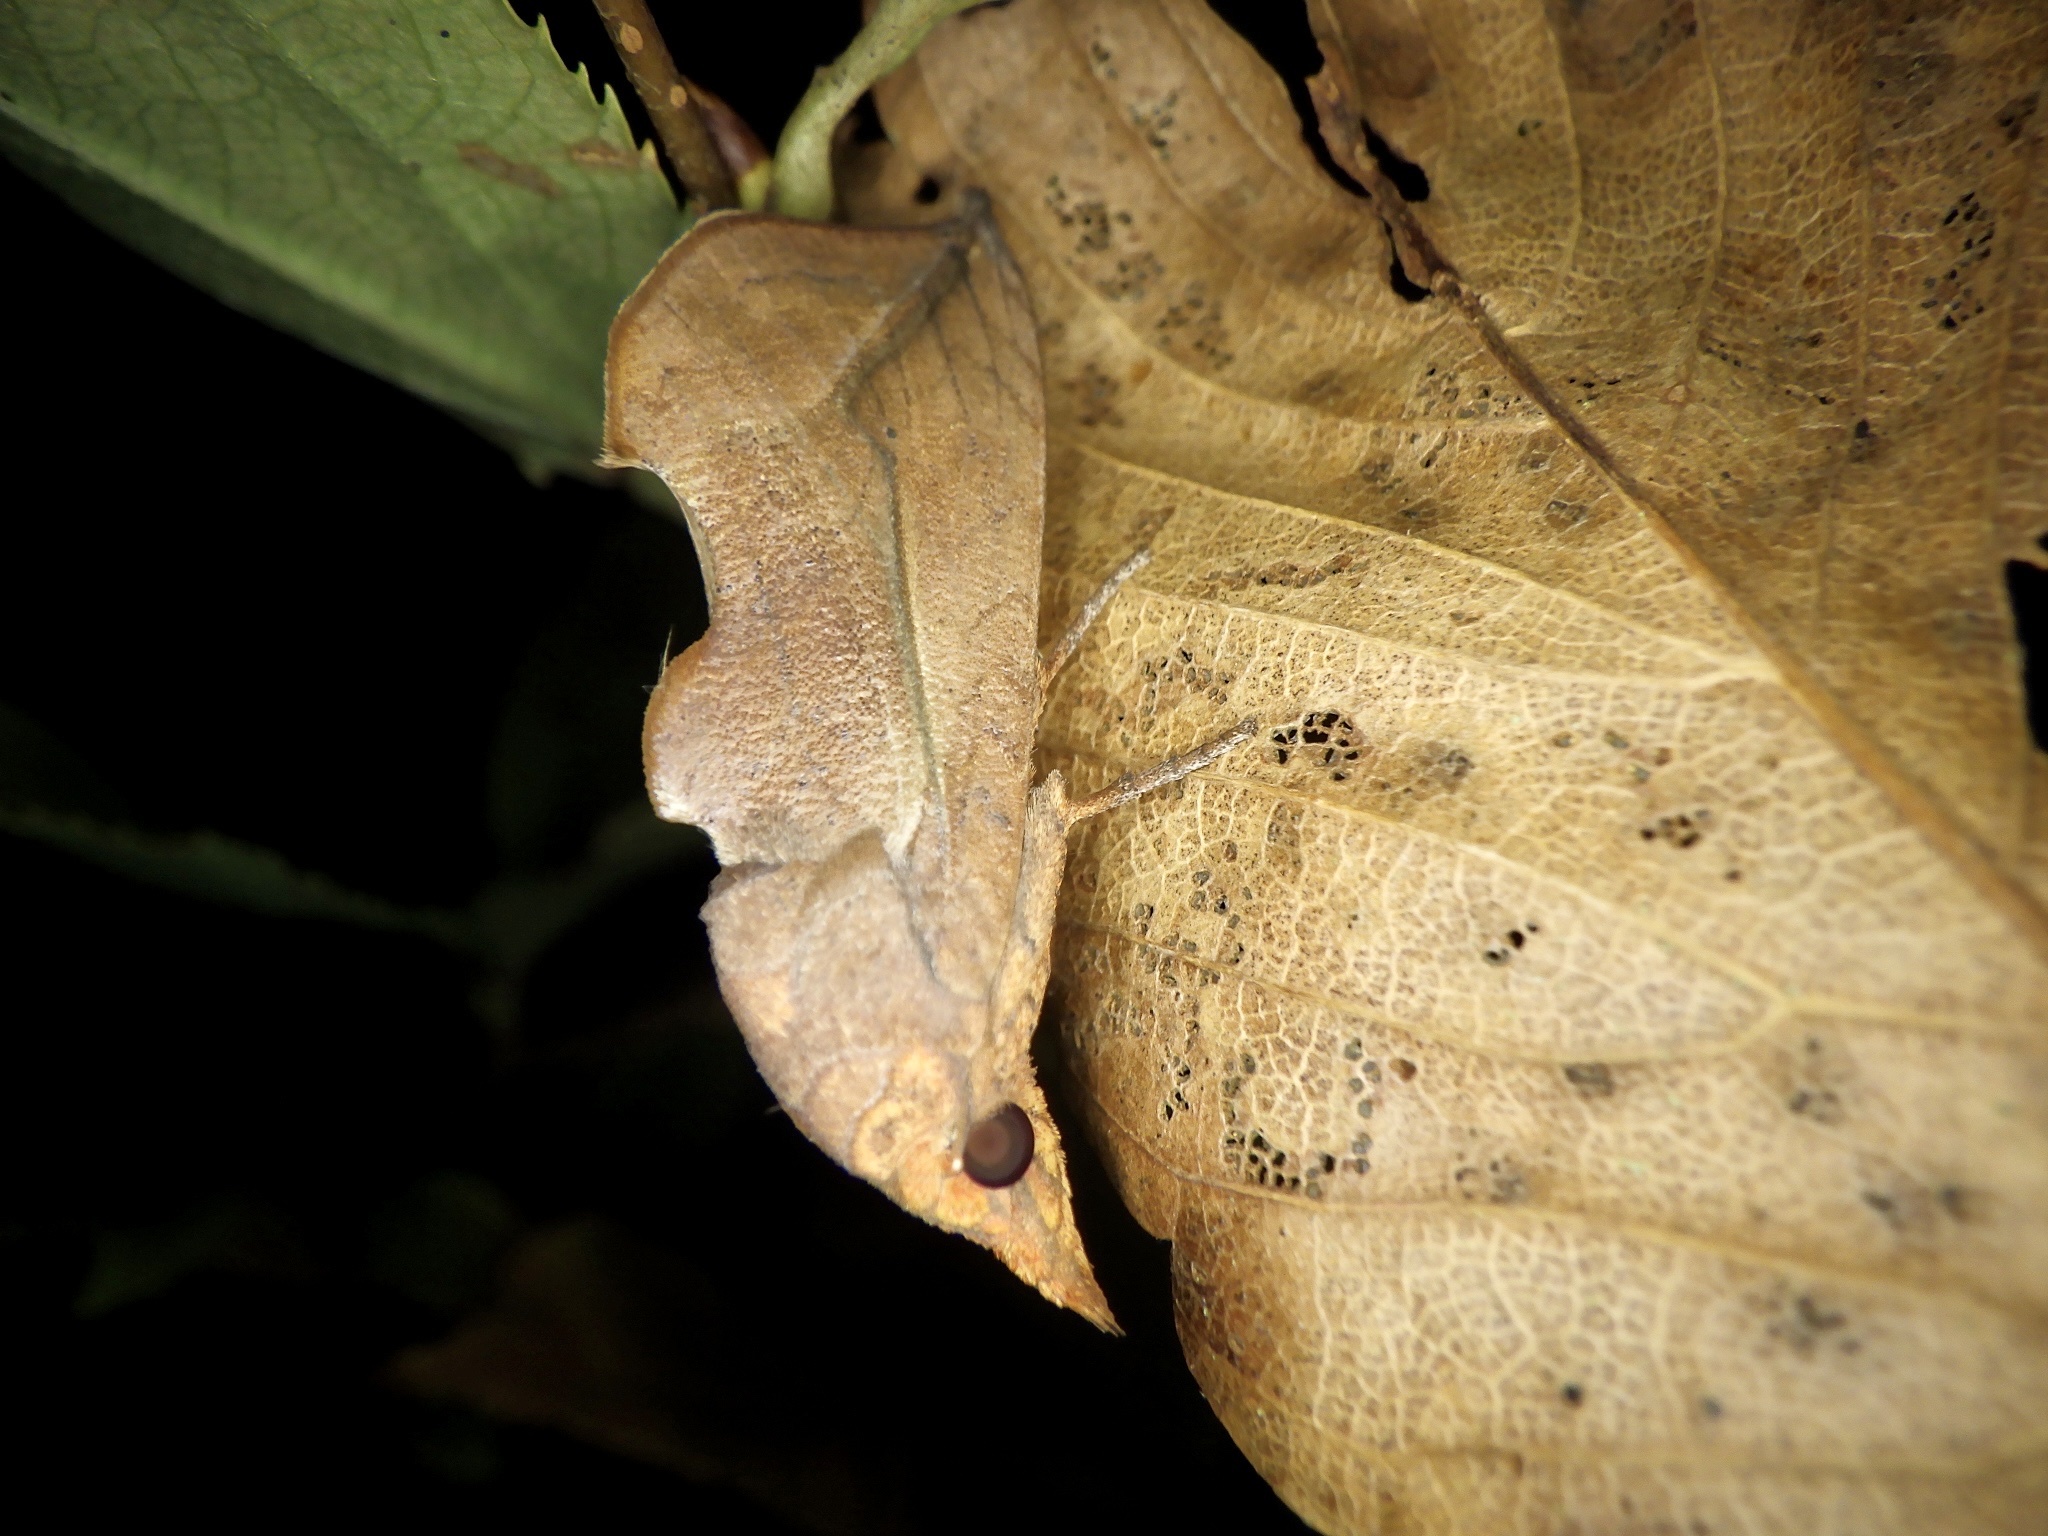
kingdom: Animalia
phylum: Arthropoda
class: Insecta
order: Lepidoptera
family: Erebidae
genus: Oraesia
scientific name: Oraesia excavata
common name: Moth
